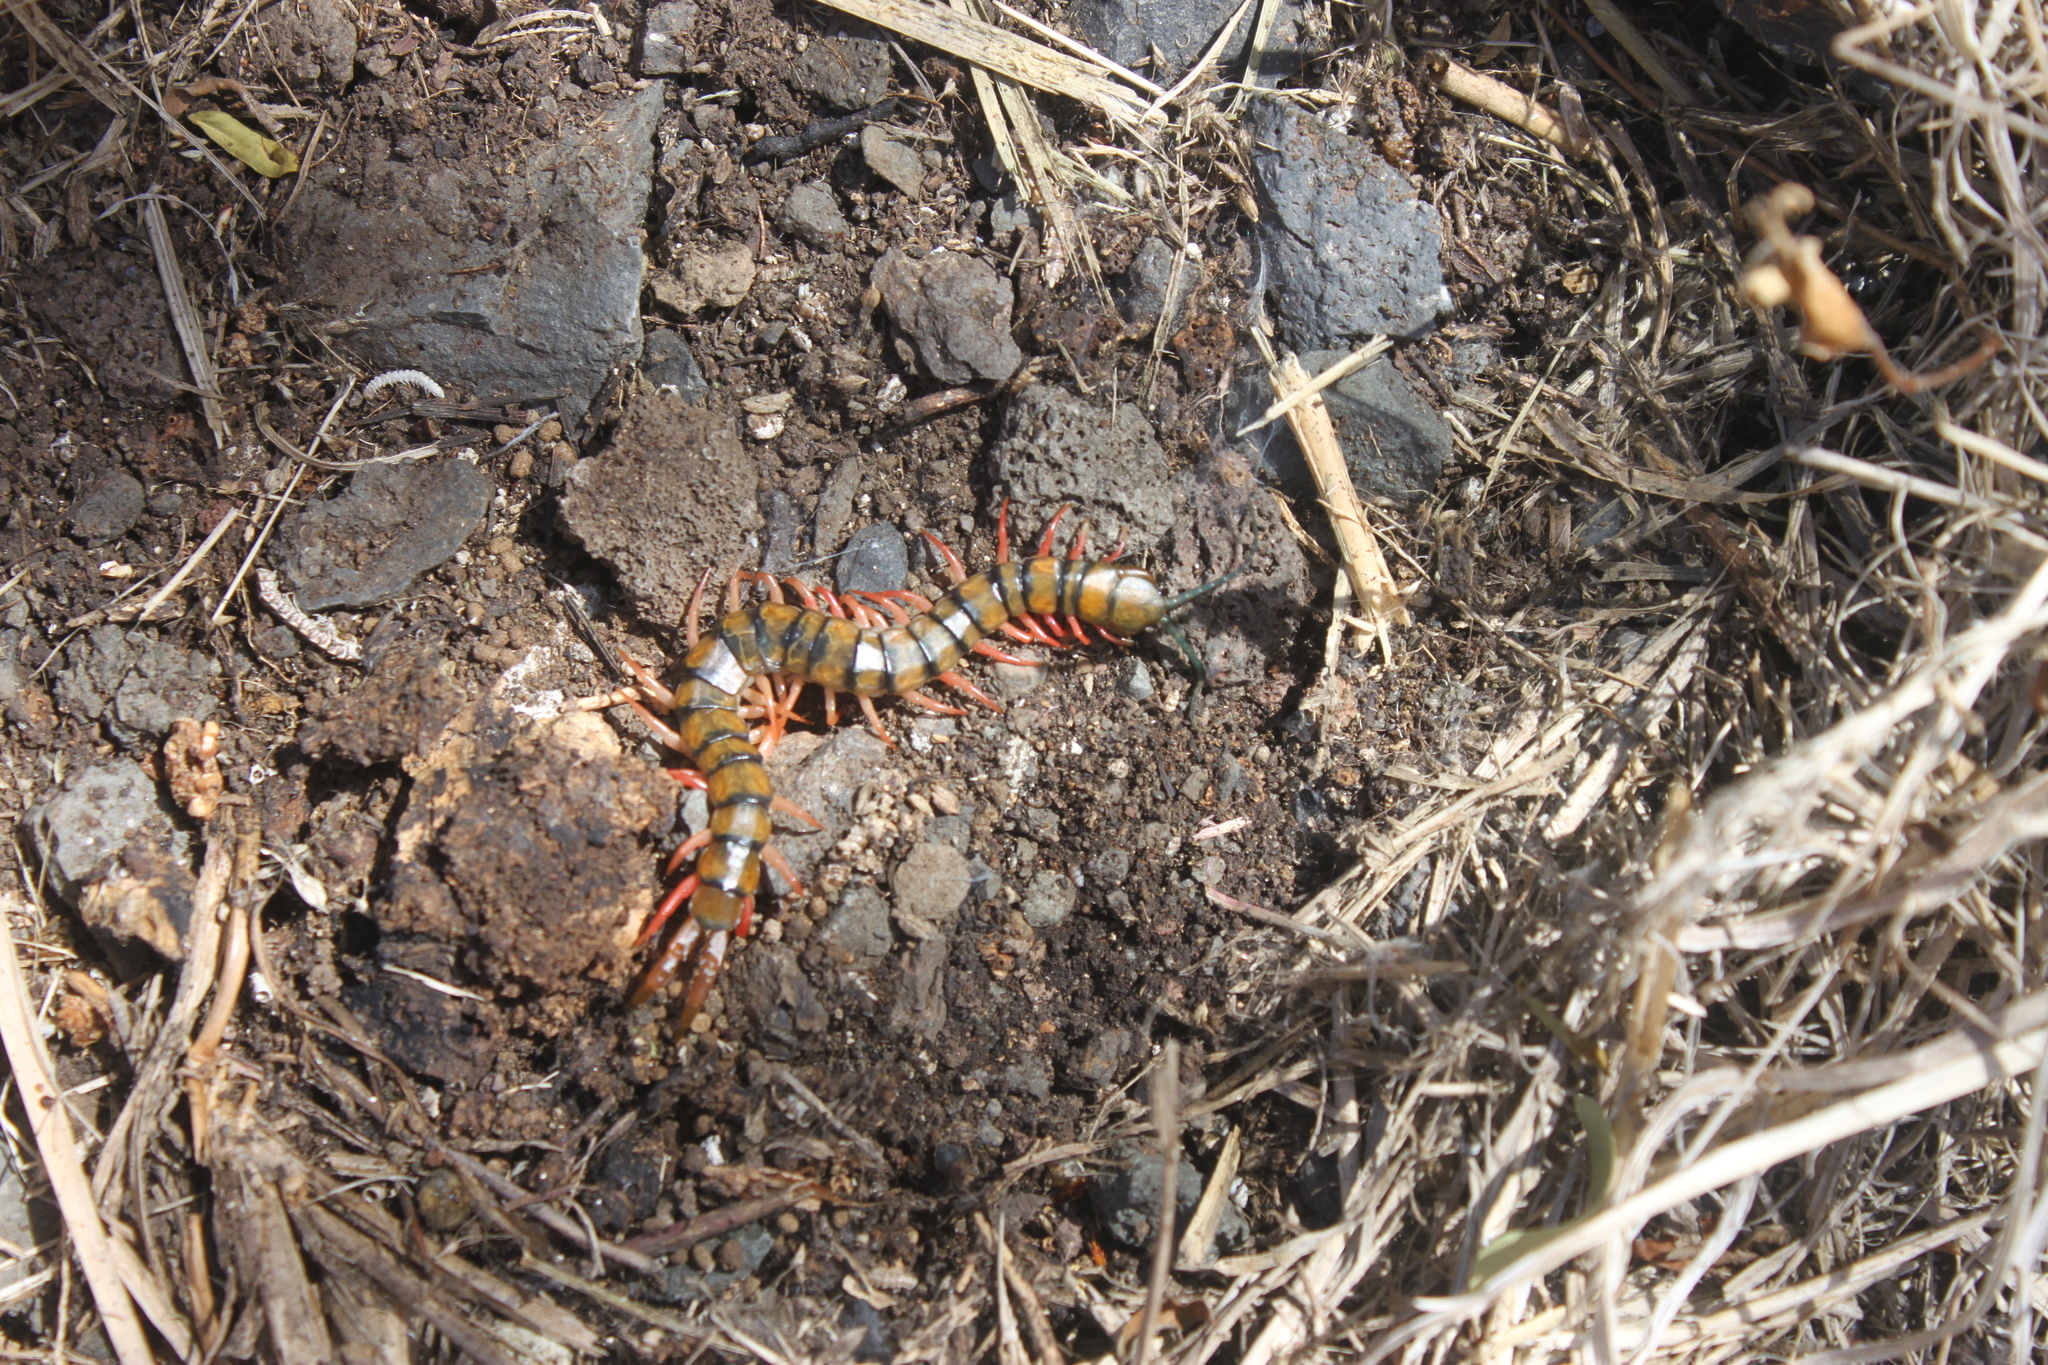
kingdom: Animalia
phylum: Arthropoda
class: Chilopoda
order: Scolopendromorpha
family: Scolopendridae
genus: Scolopendra
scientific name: Scolopendra morsitans
